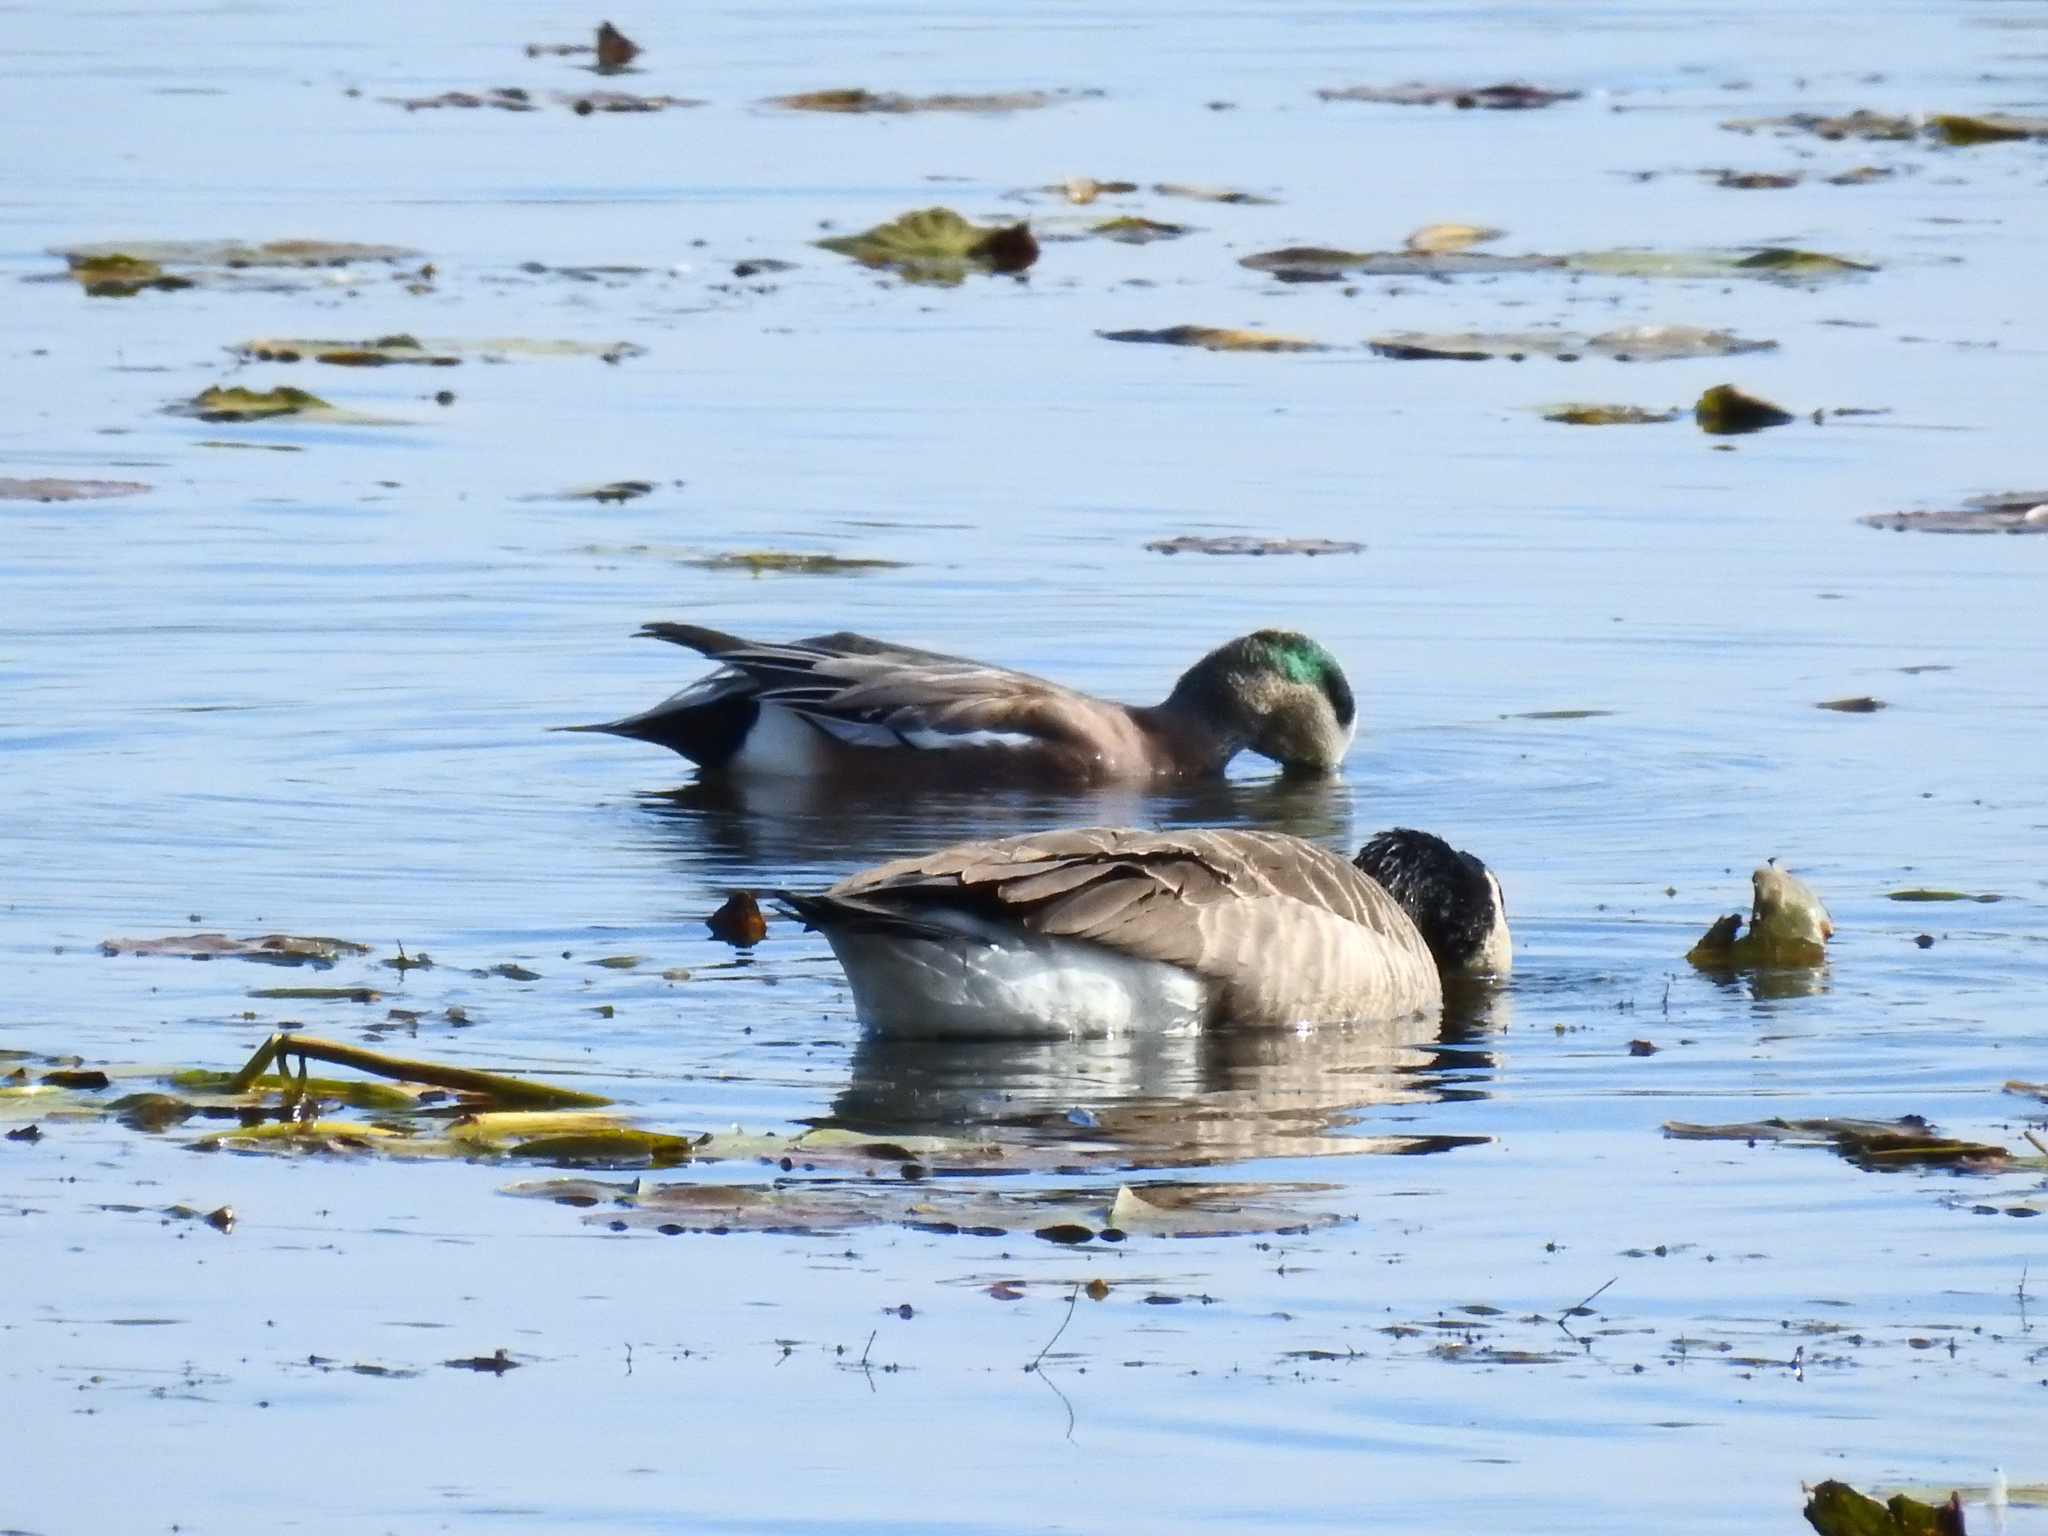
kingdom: Animalia
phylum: Chordata
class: Aves
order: Anseriformes
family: Anatidae
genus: Mareca
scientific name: Mareca americana
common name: American wigeon
